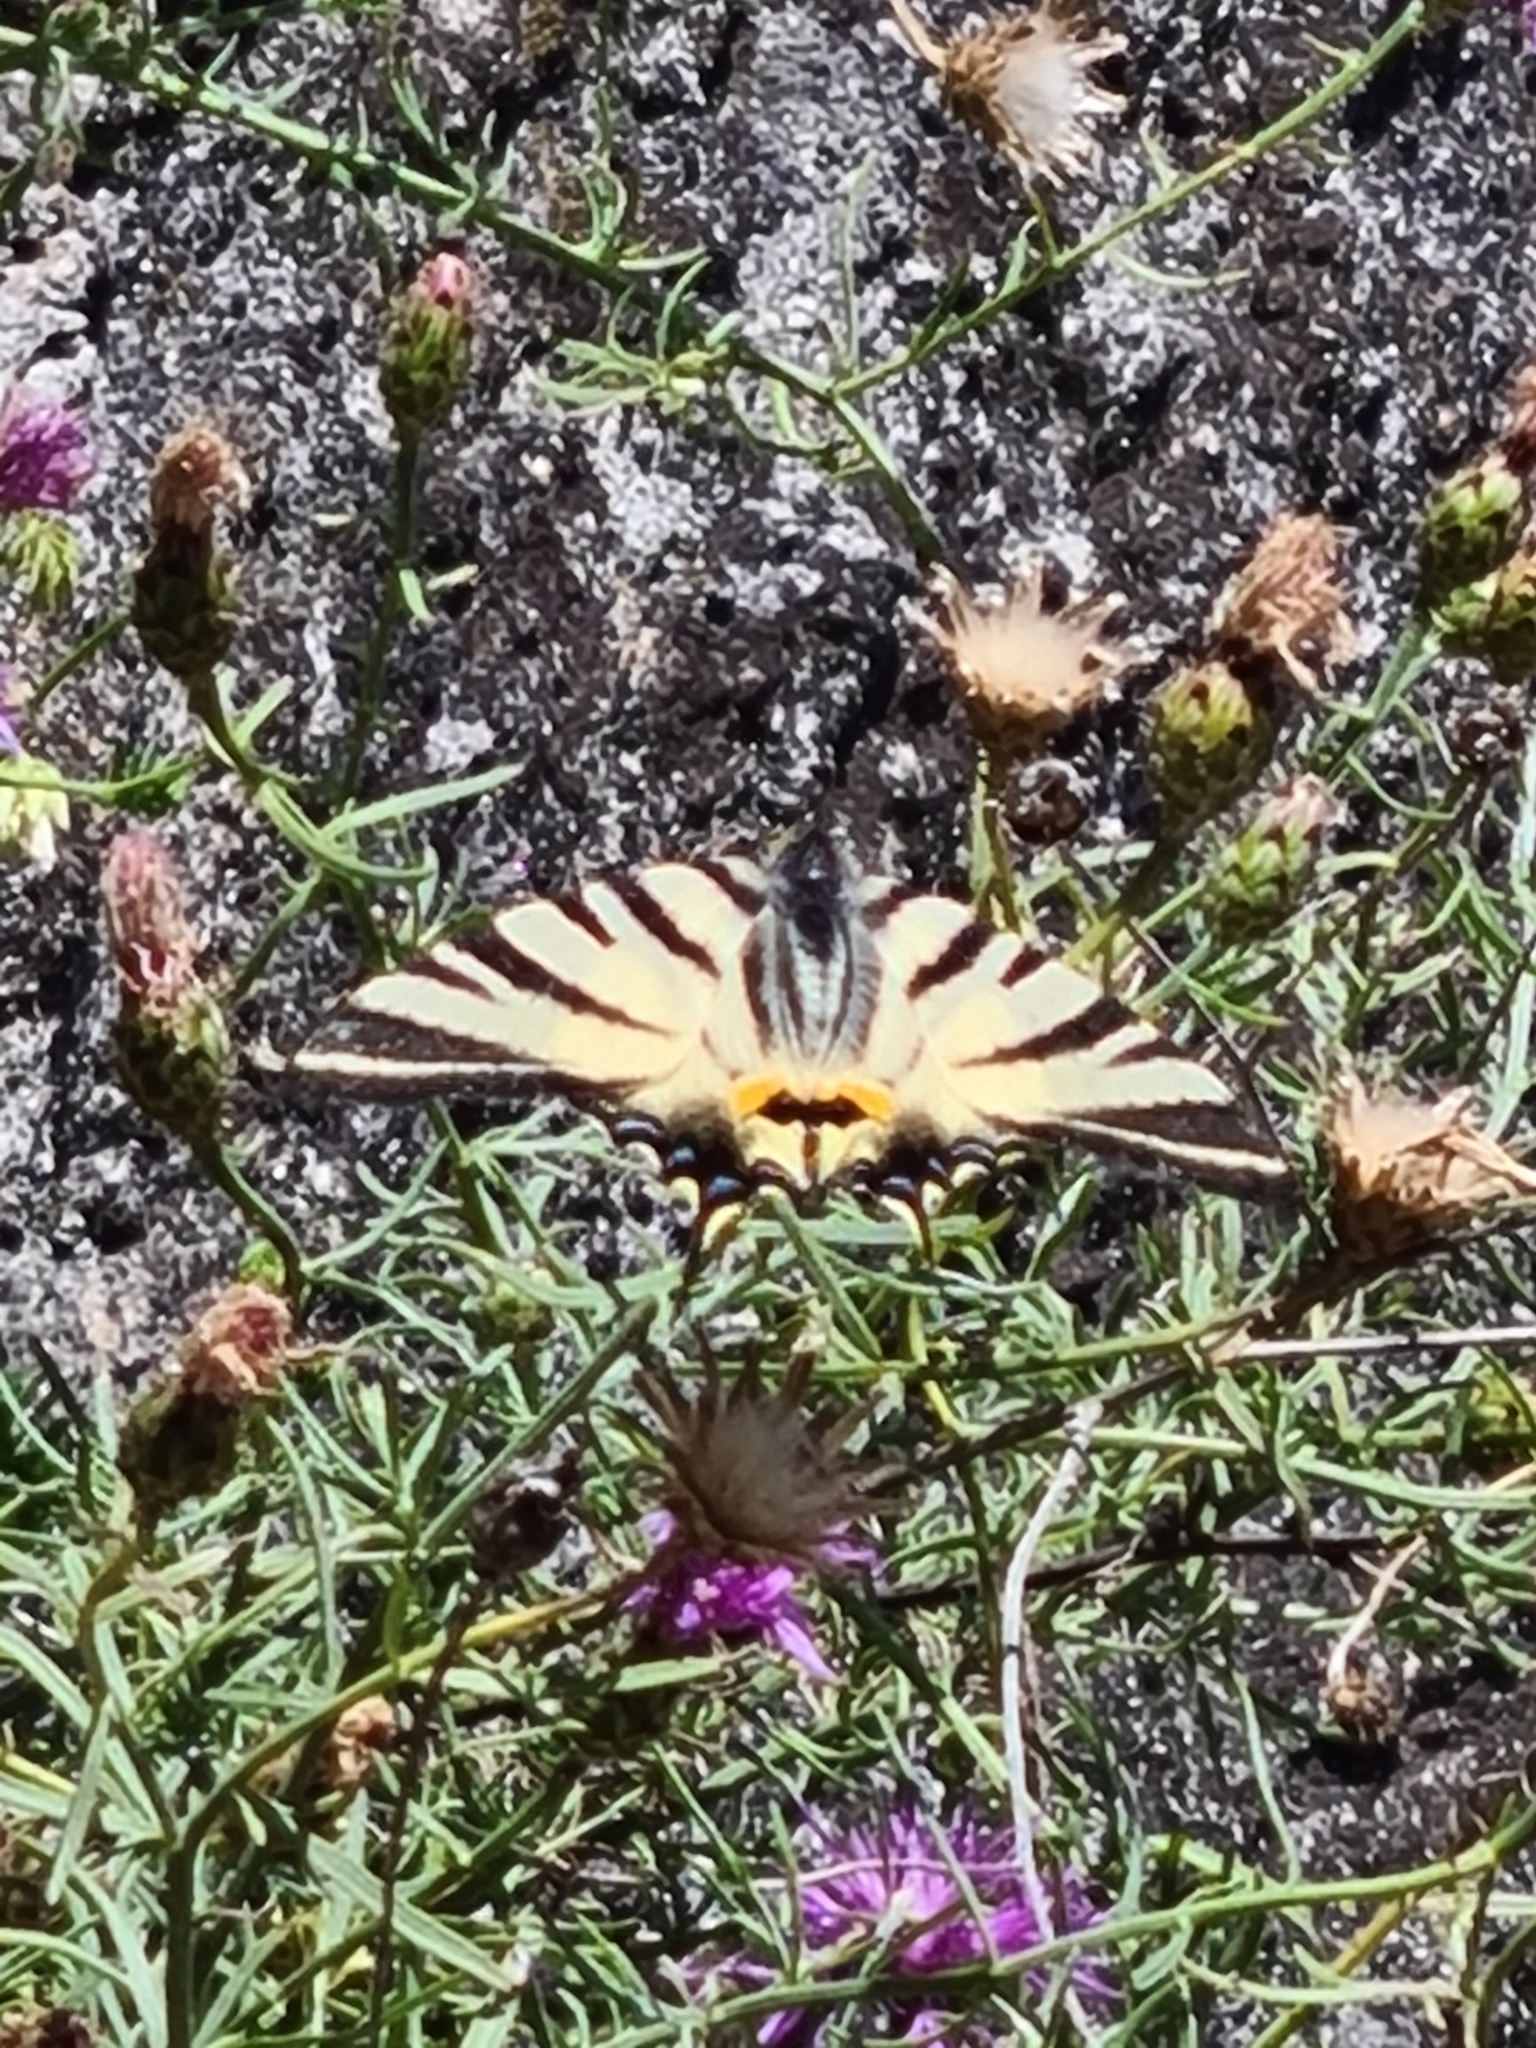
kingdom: Animalia
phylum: Arthropoda
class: Insecta
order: Lepidoptera
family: Papilionidae
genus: Iphiclides
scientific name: Iphiclides podalirius
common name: Scarce swallowtail
